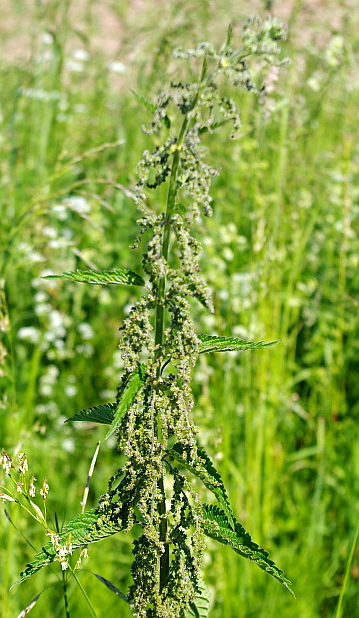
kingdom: Plantae
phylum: Tracheophyta
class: Magnoliopsida
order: Rosales
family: Urticaceae
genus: Urtica
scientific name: Urtica dioica
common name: Common nettle
